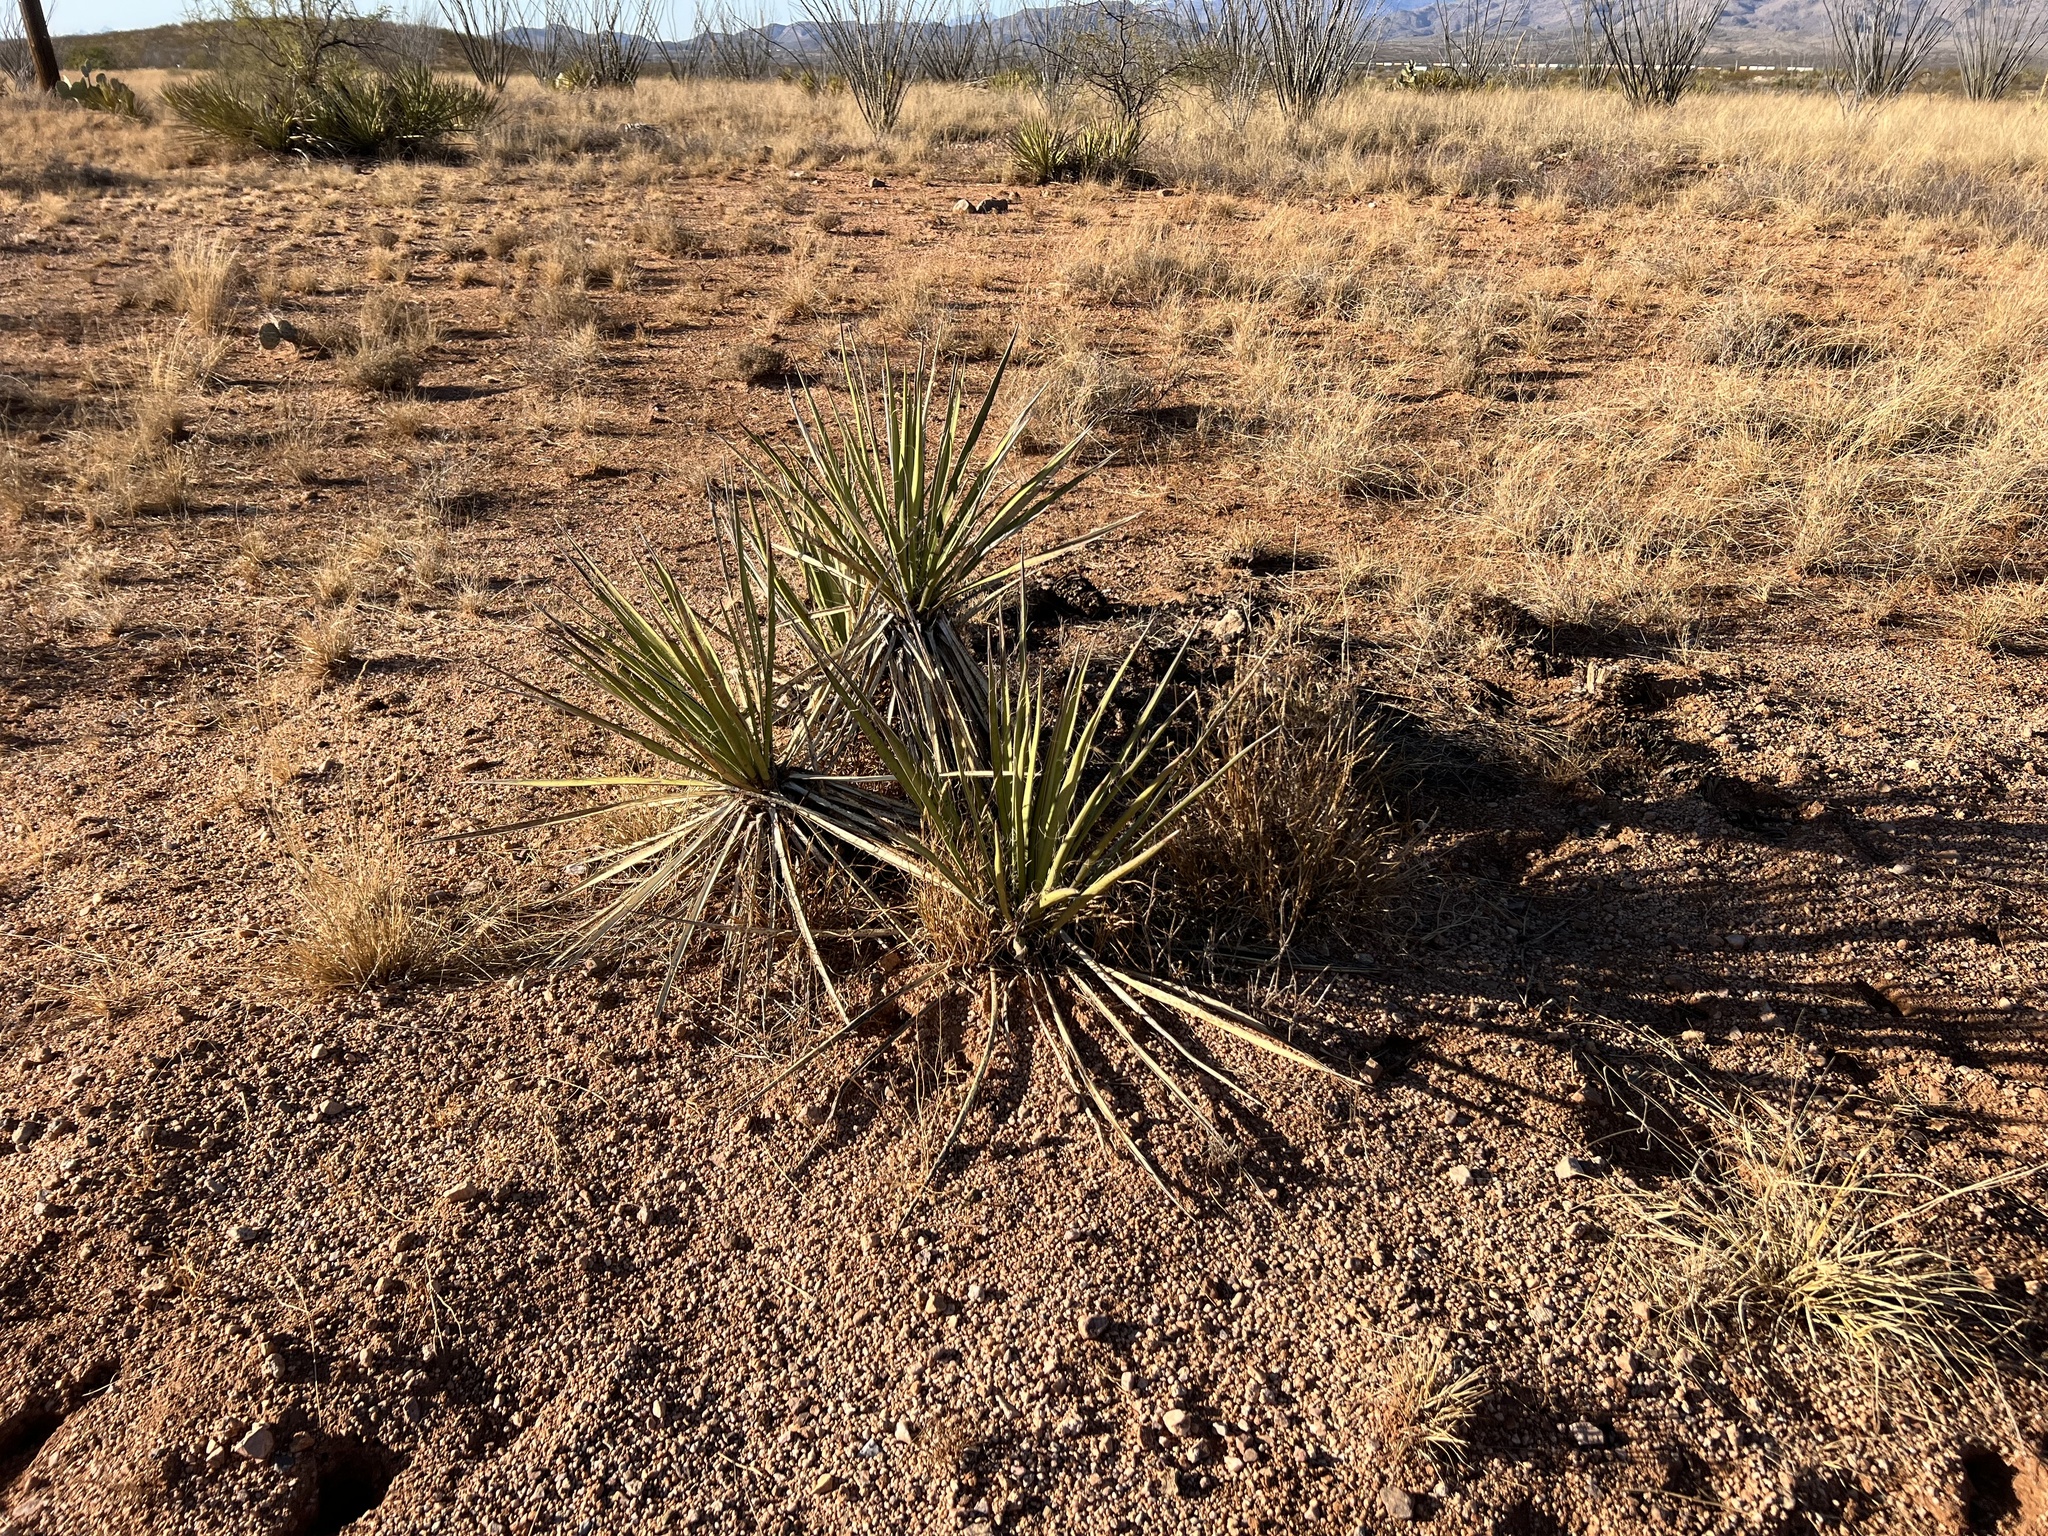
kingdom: Plantae
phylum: Tracheophyta
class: Liliopsida
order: Asparagales
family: Asparagaceae
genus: Yucca
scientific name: Yucca baccata
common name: Banana yucca
